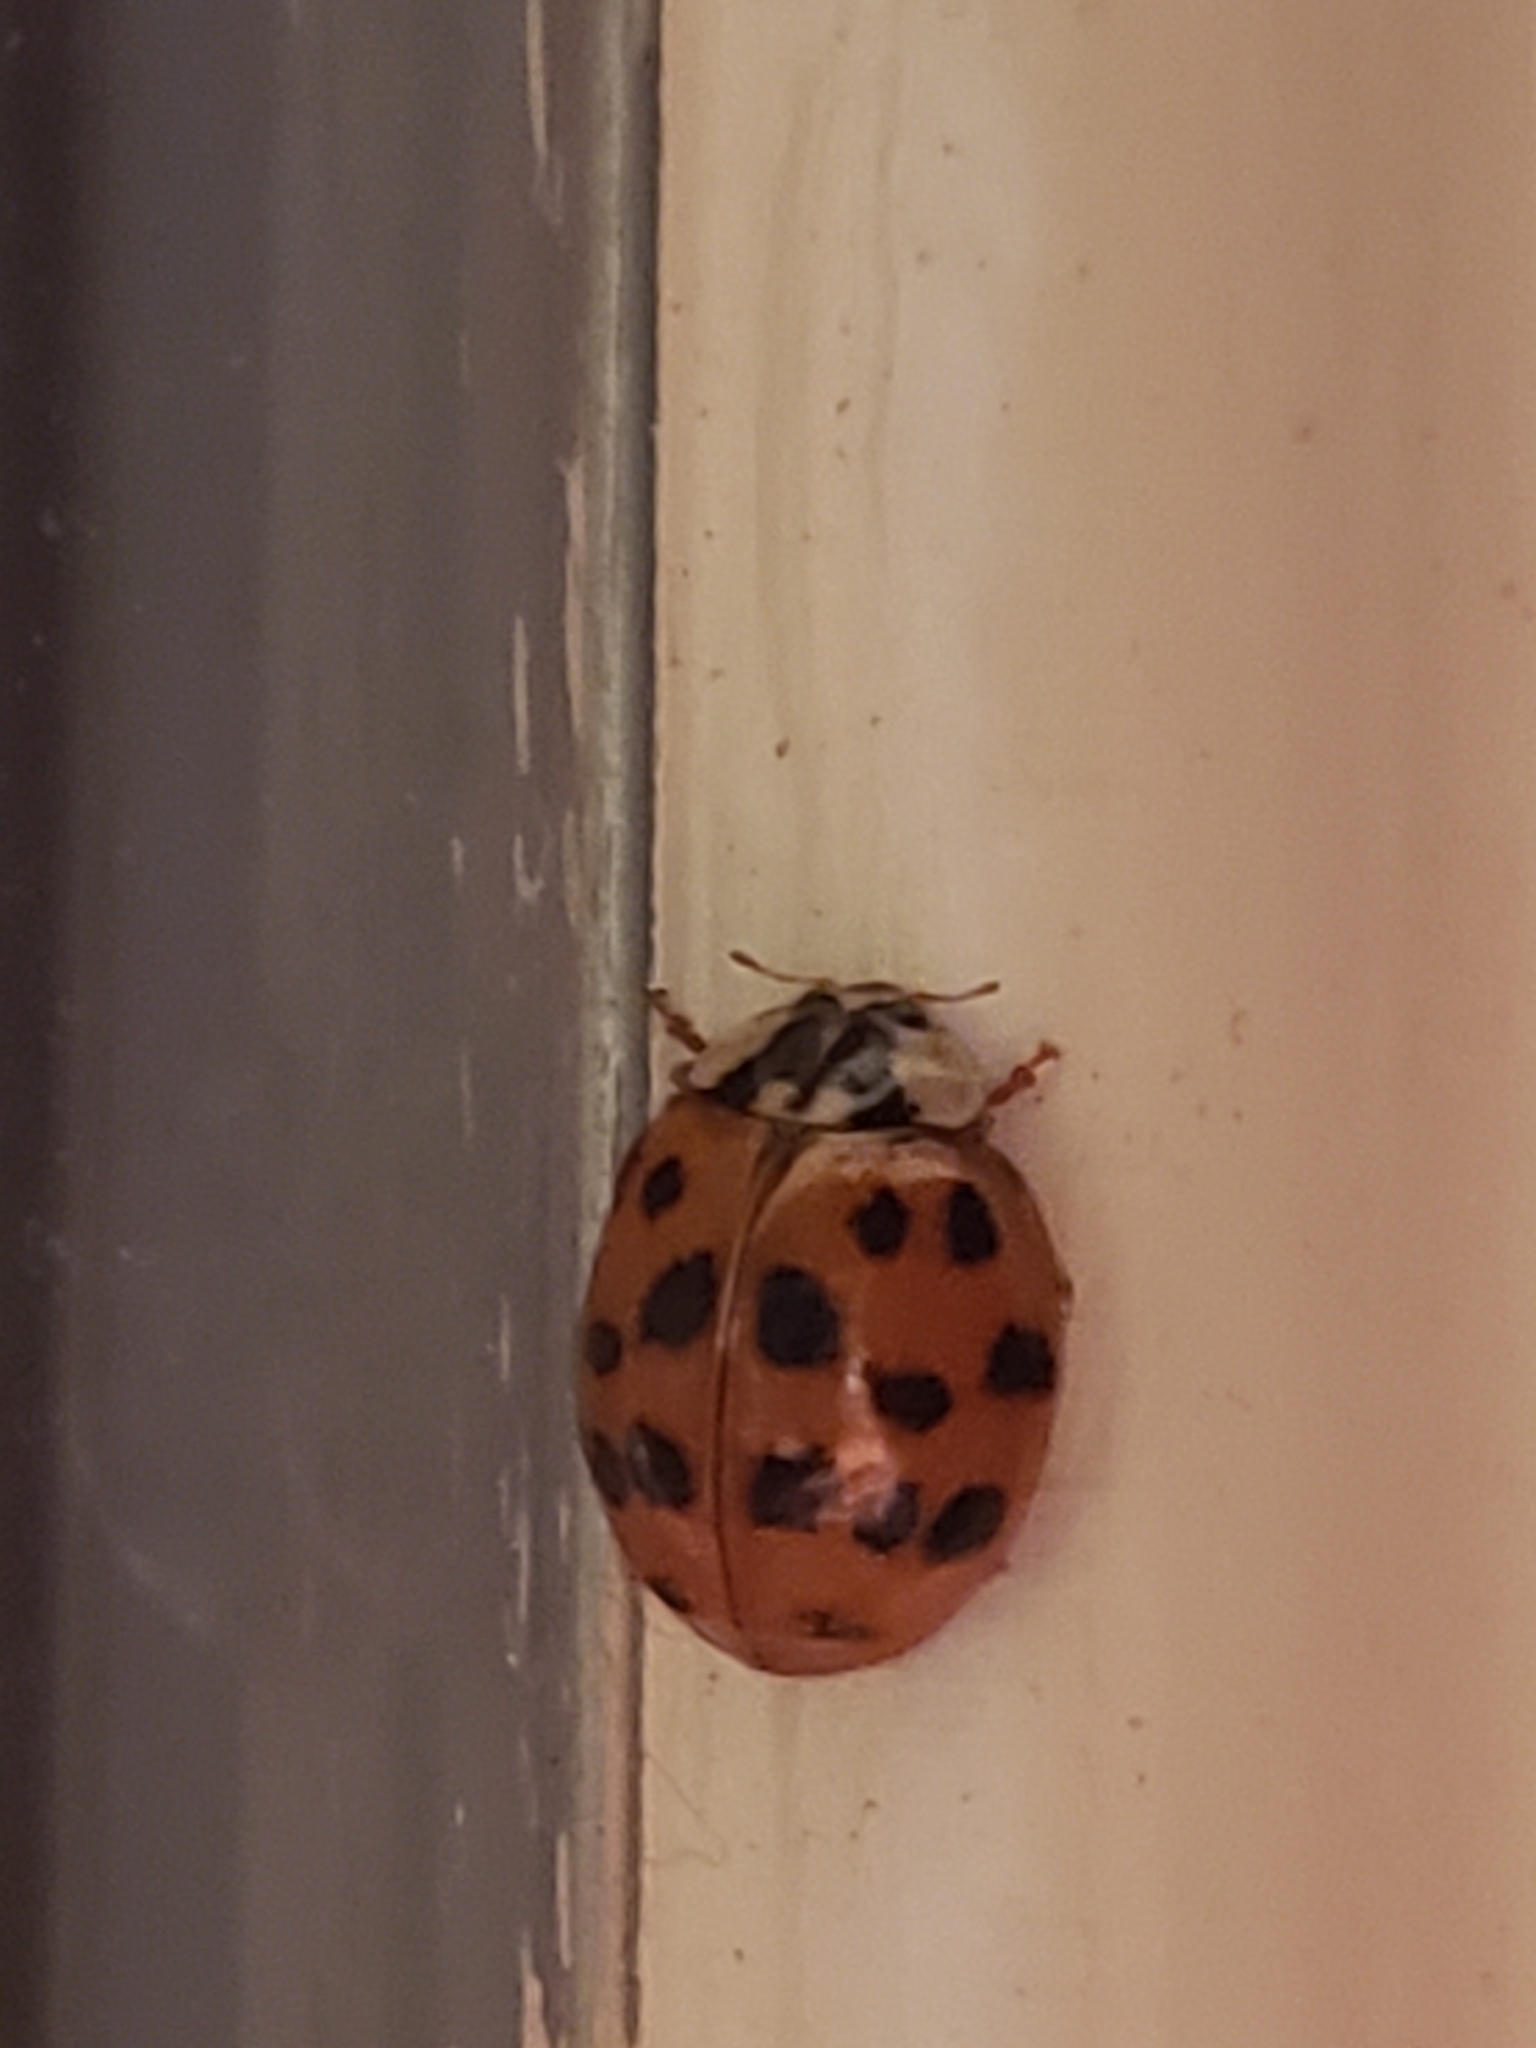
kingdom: Animalia
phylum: Arthropoda
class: Insecta
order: Coleoptera
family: Coccinellidae
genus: Harmonia
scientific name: Harmonia axyridis
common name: Harlequin ladybird
